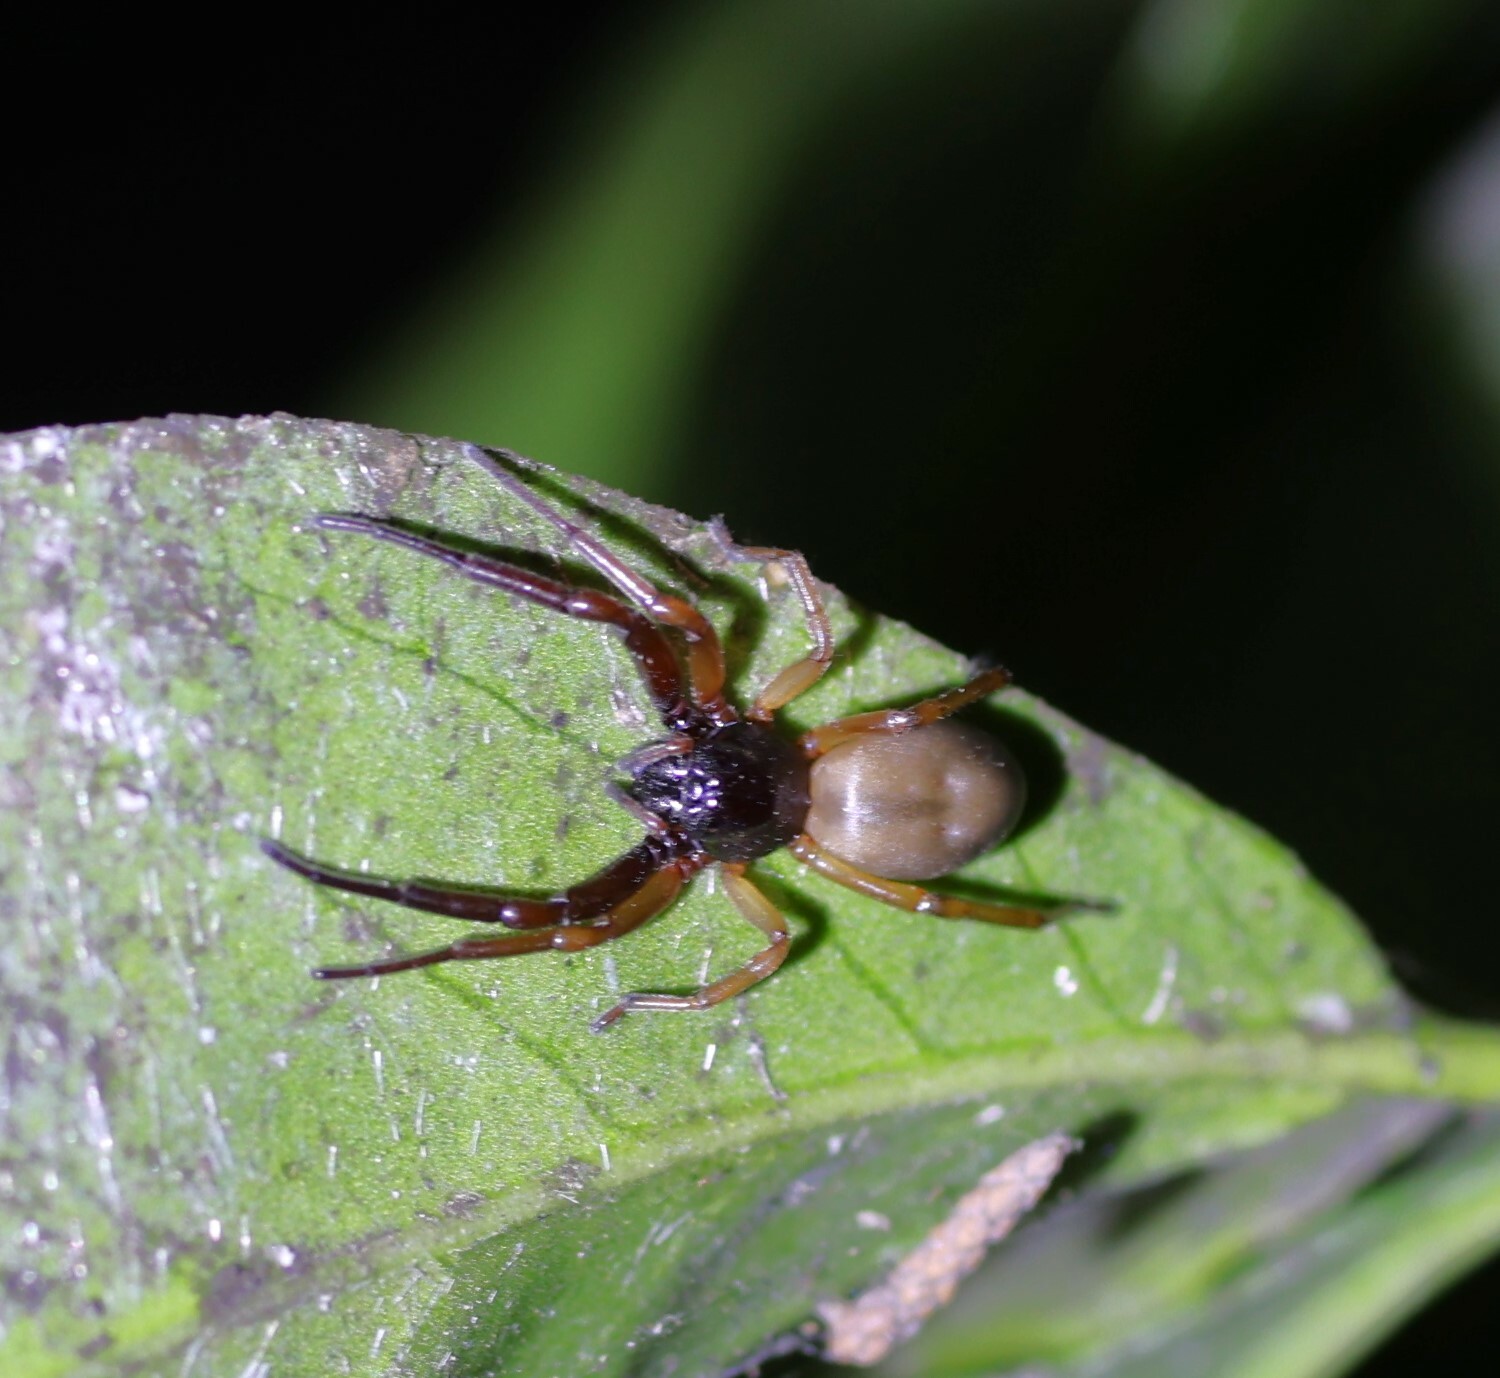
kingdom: Animalia
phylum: Arthropoda
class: Arachnida
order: Araneae
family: Trachelidae
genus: Trachelas
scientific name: Trachelas pacificus
